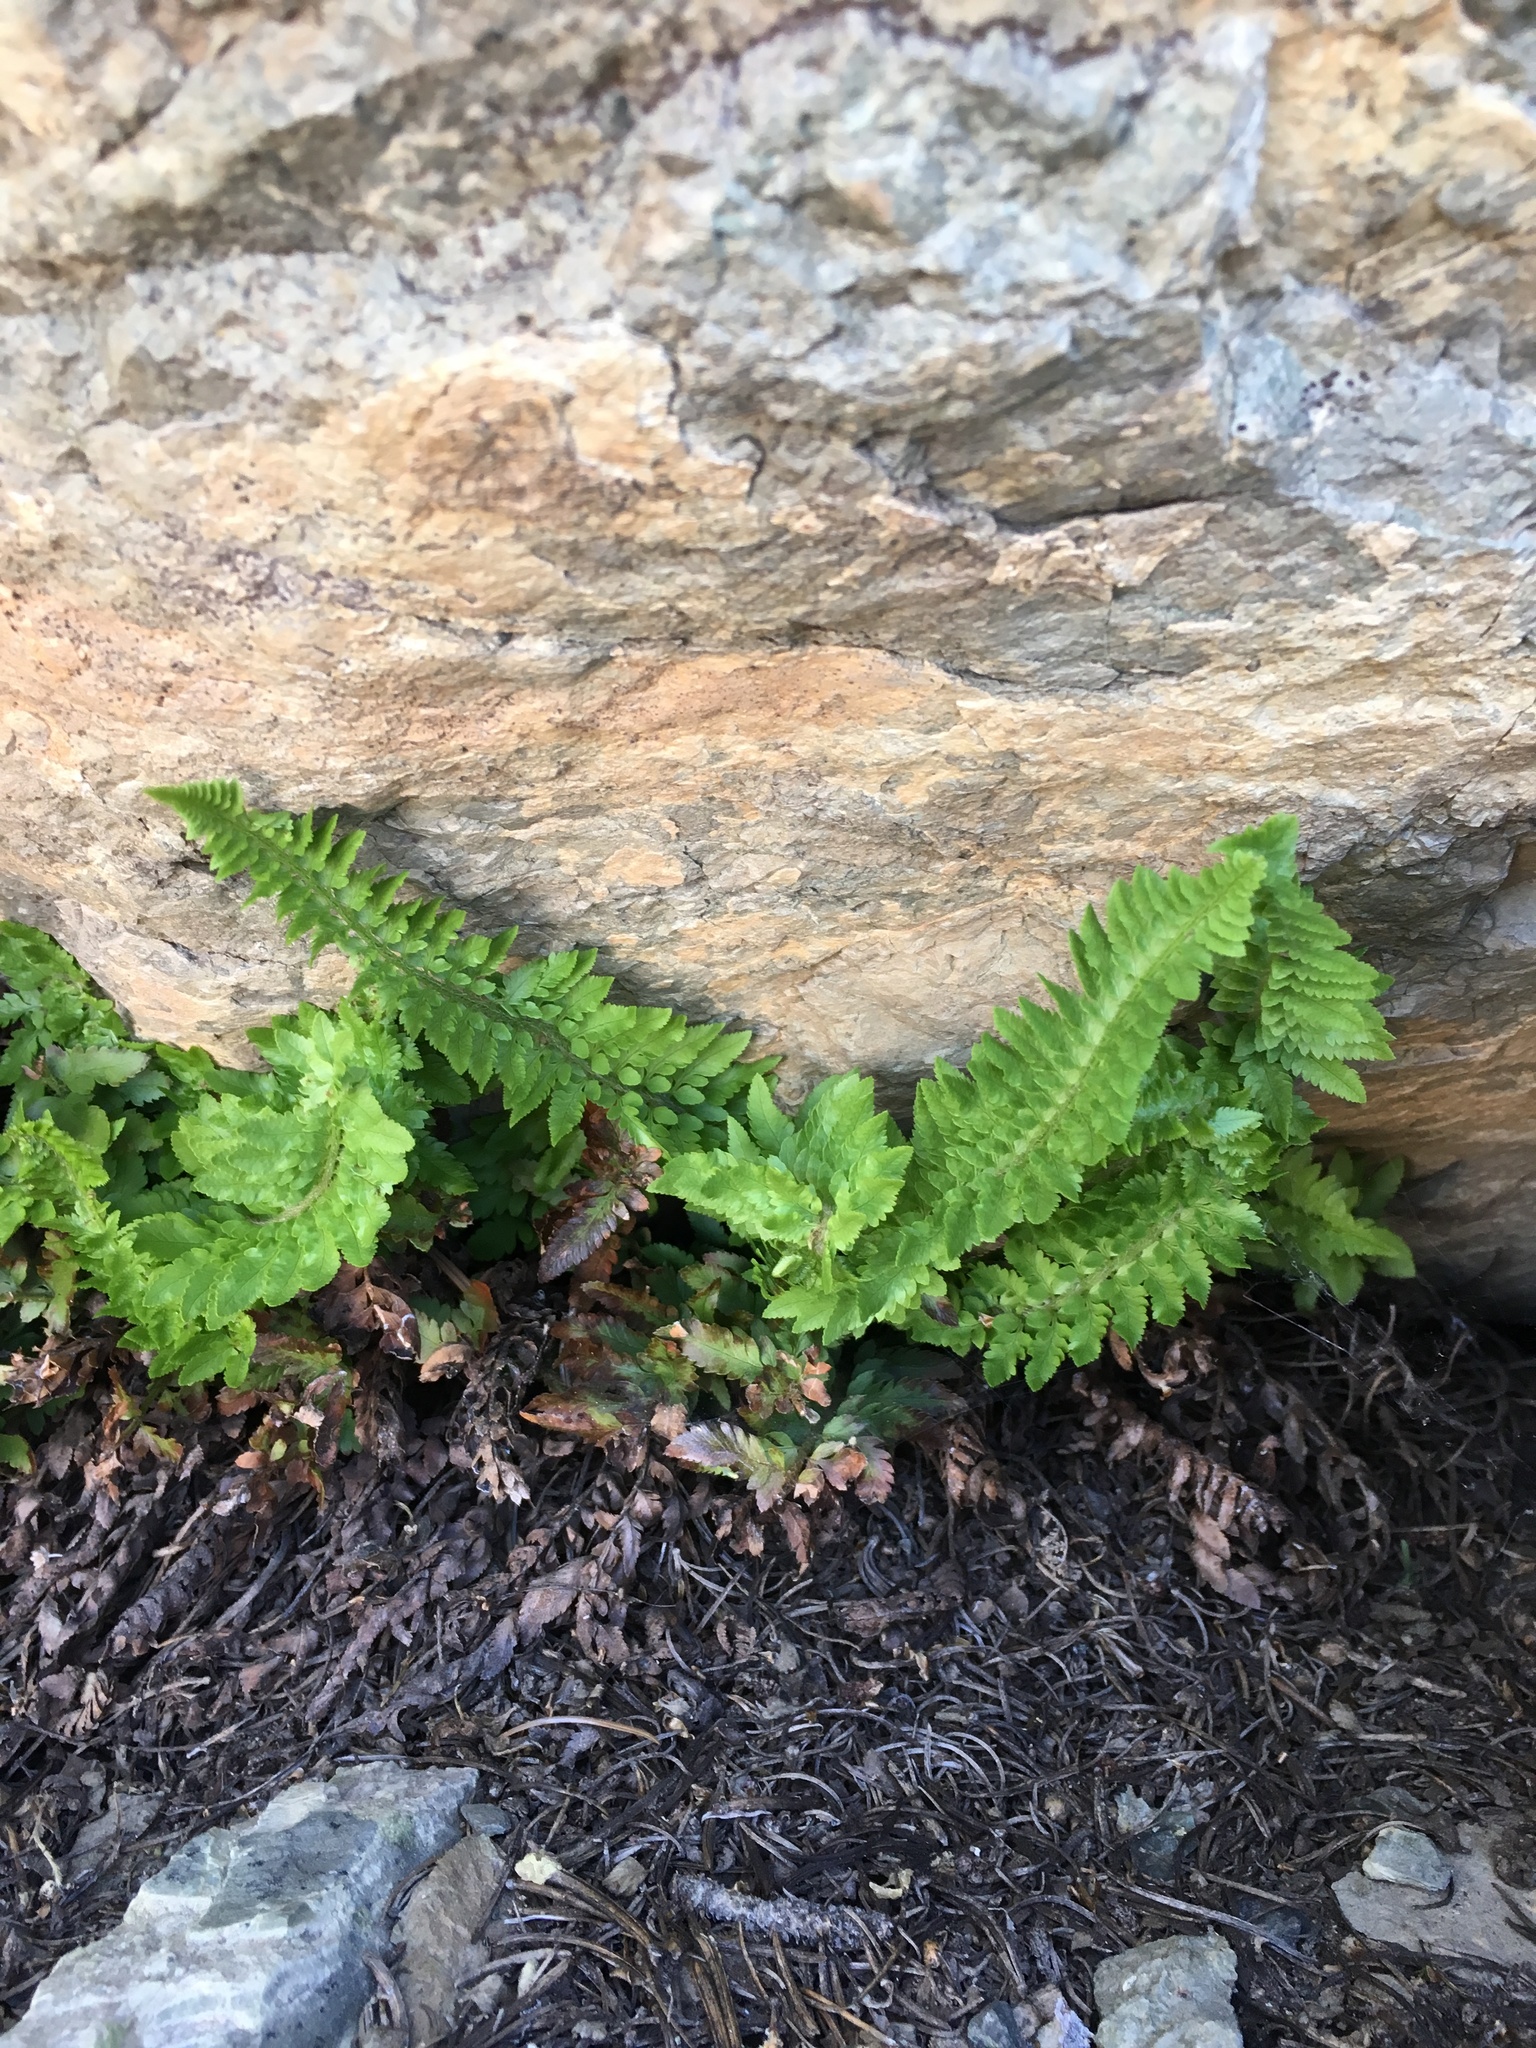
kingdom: Plantae
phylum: Tracheophyta
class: Polypodiopsida
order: Polypodiales
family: Dryopteridaceae
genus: Polystichum
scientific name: Polystichum scopulinum
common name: Eaton's shield fern
